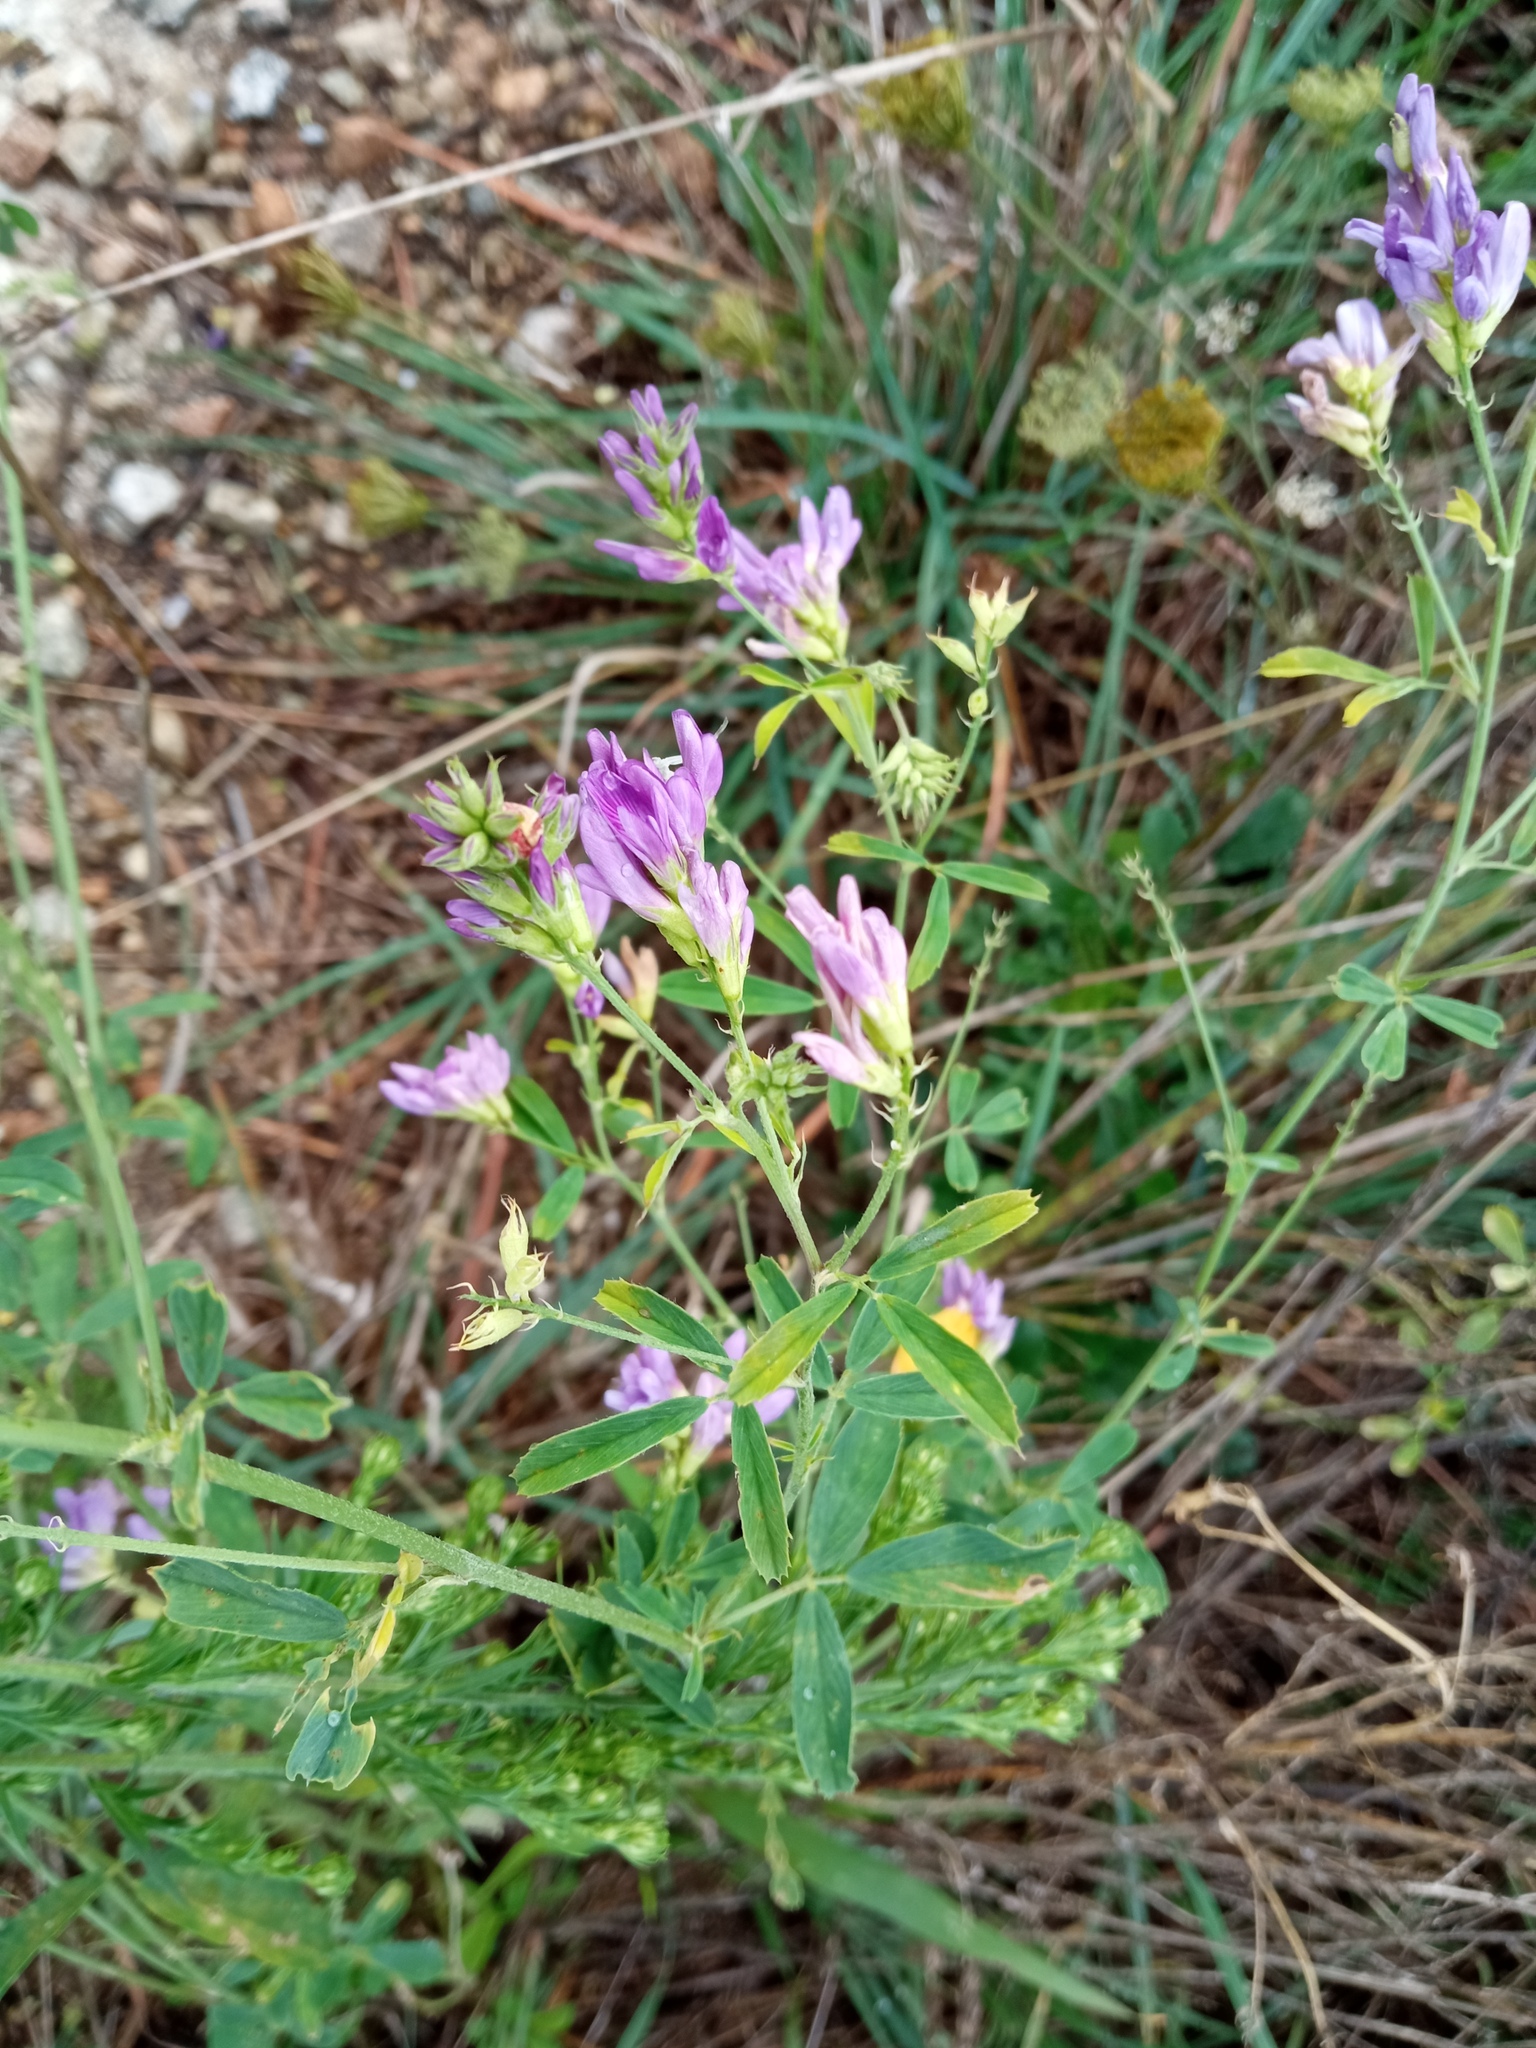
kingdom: Plantae
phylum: Tracheophyta
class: Magnoliopsida
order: Fabales
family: Fabaceae
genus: Medicago
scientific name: Medicago sativa
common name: Alfalfa
